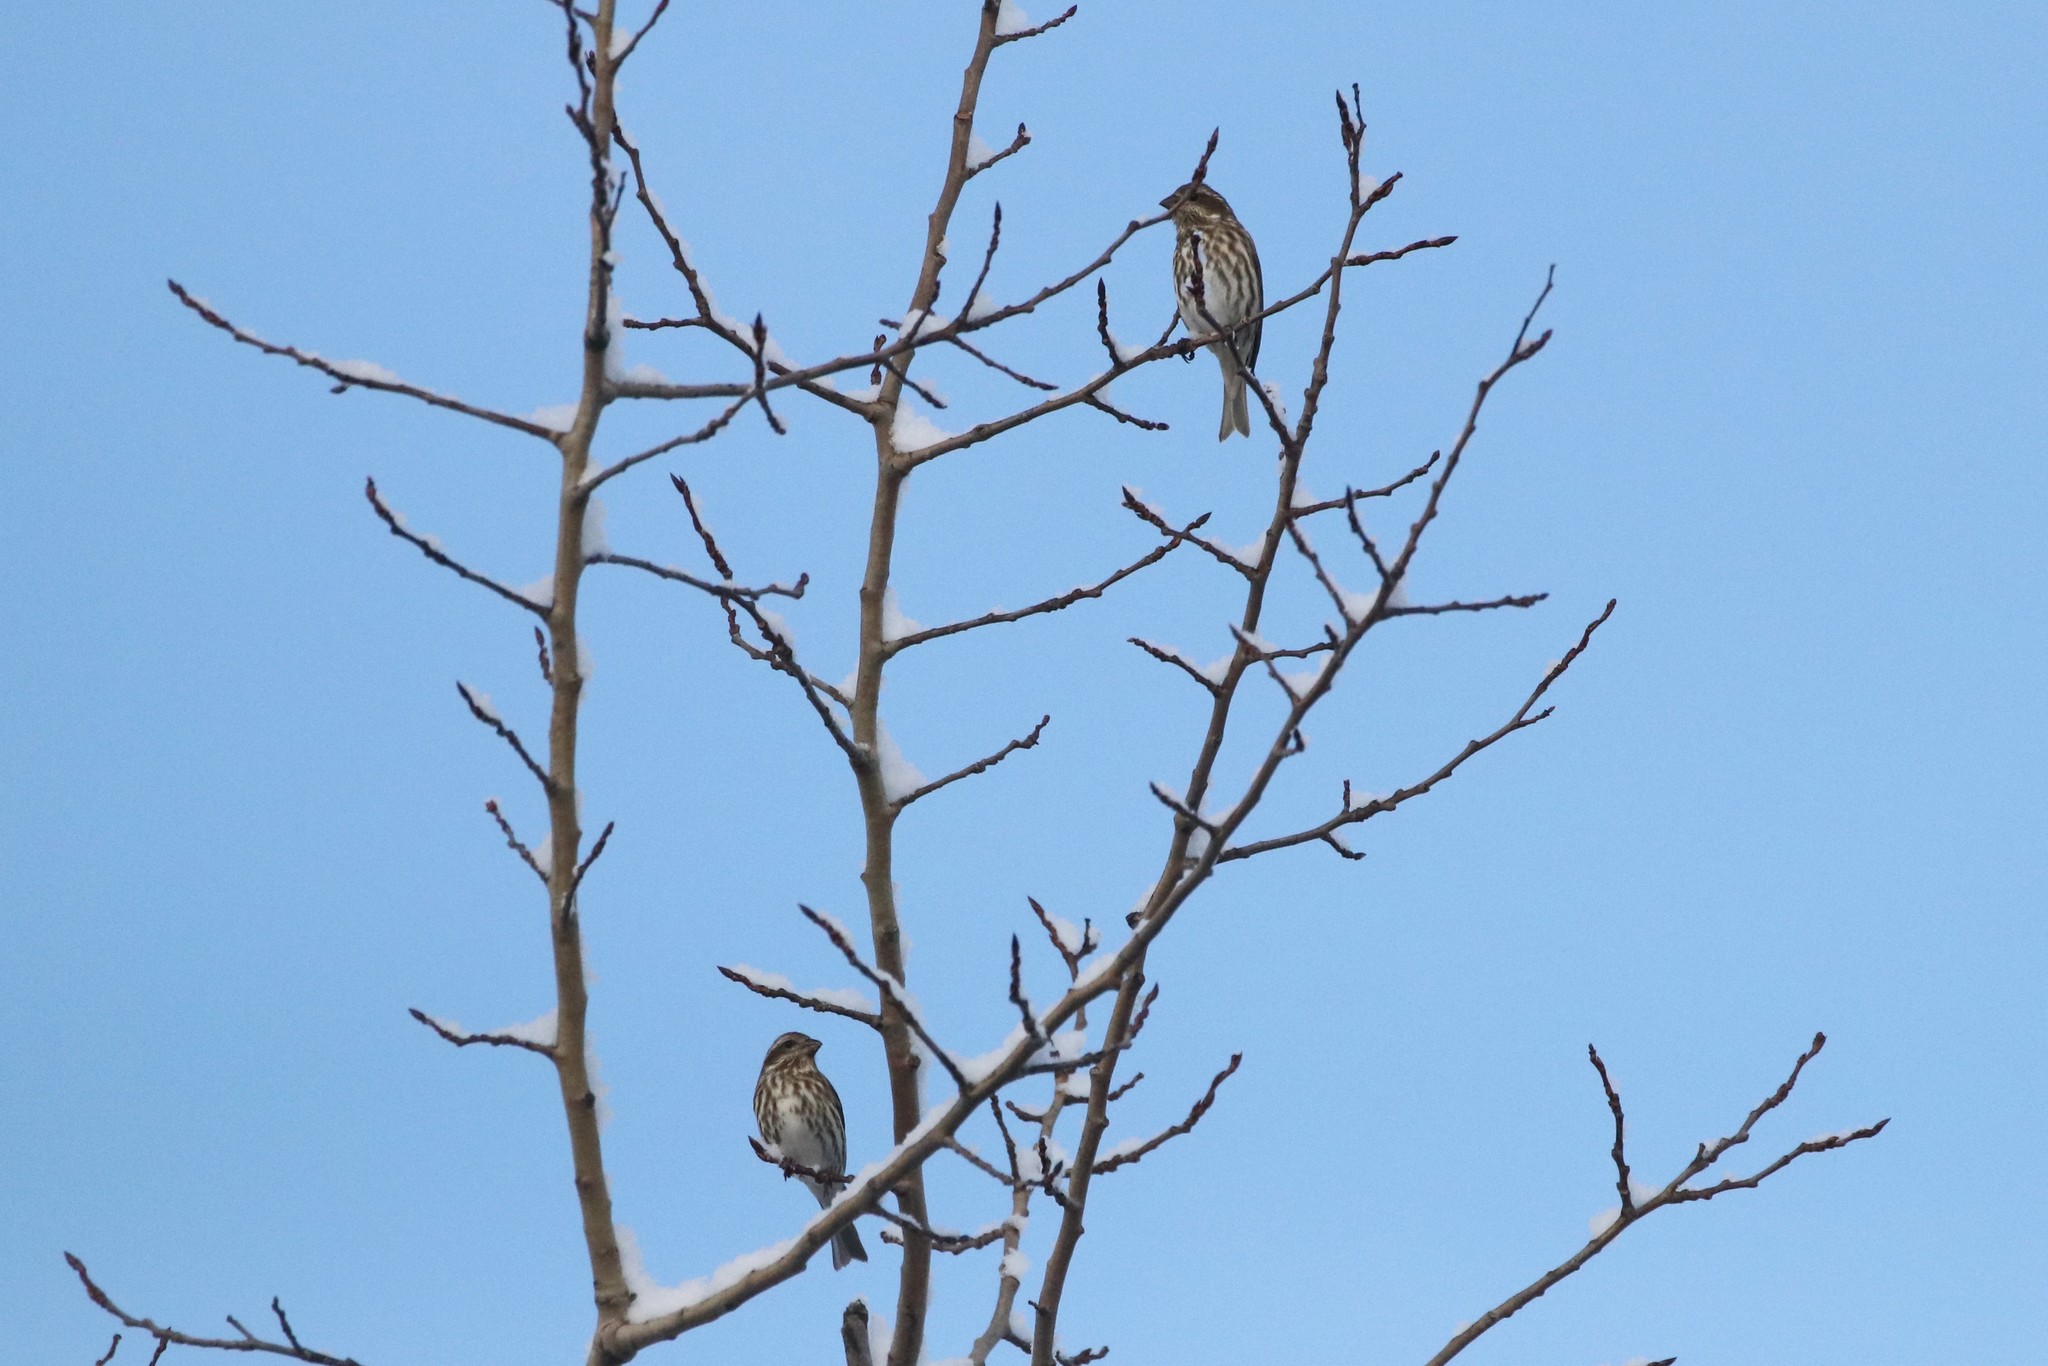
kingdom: Animalia
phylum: Chordata
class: Aves
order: Passeriformes
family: Fringillidae
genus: Haemorhous
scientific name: Haemorhous purpureus
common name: Purple finch
